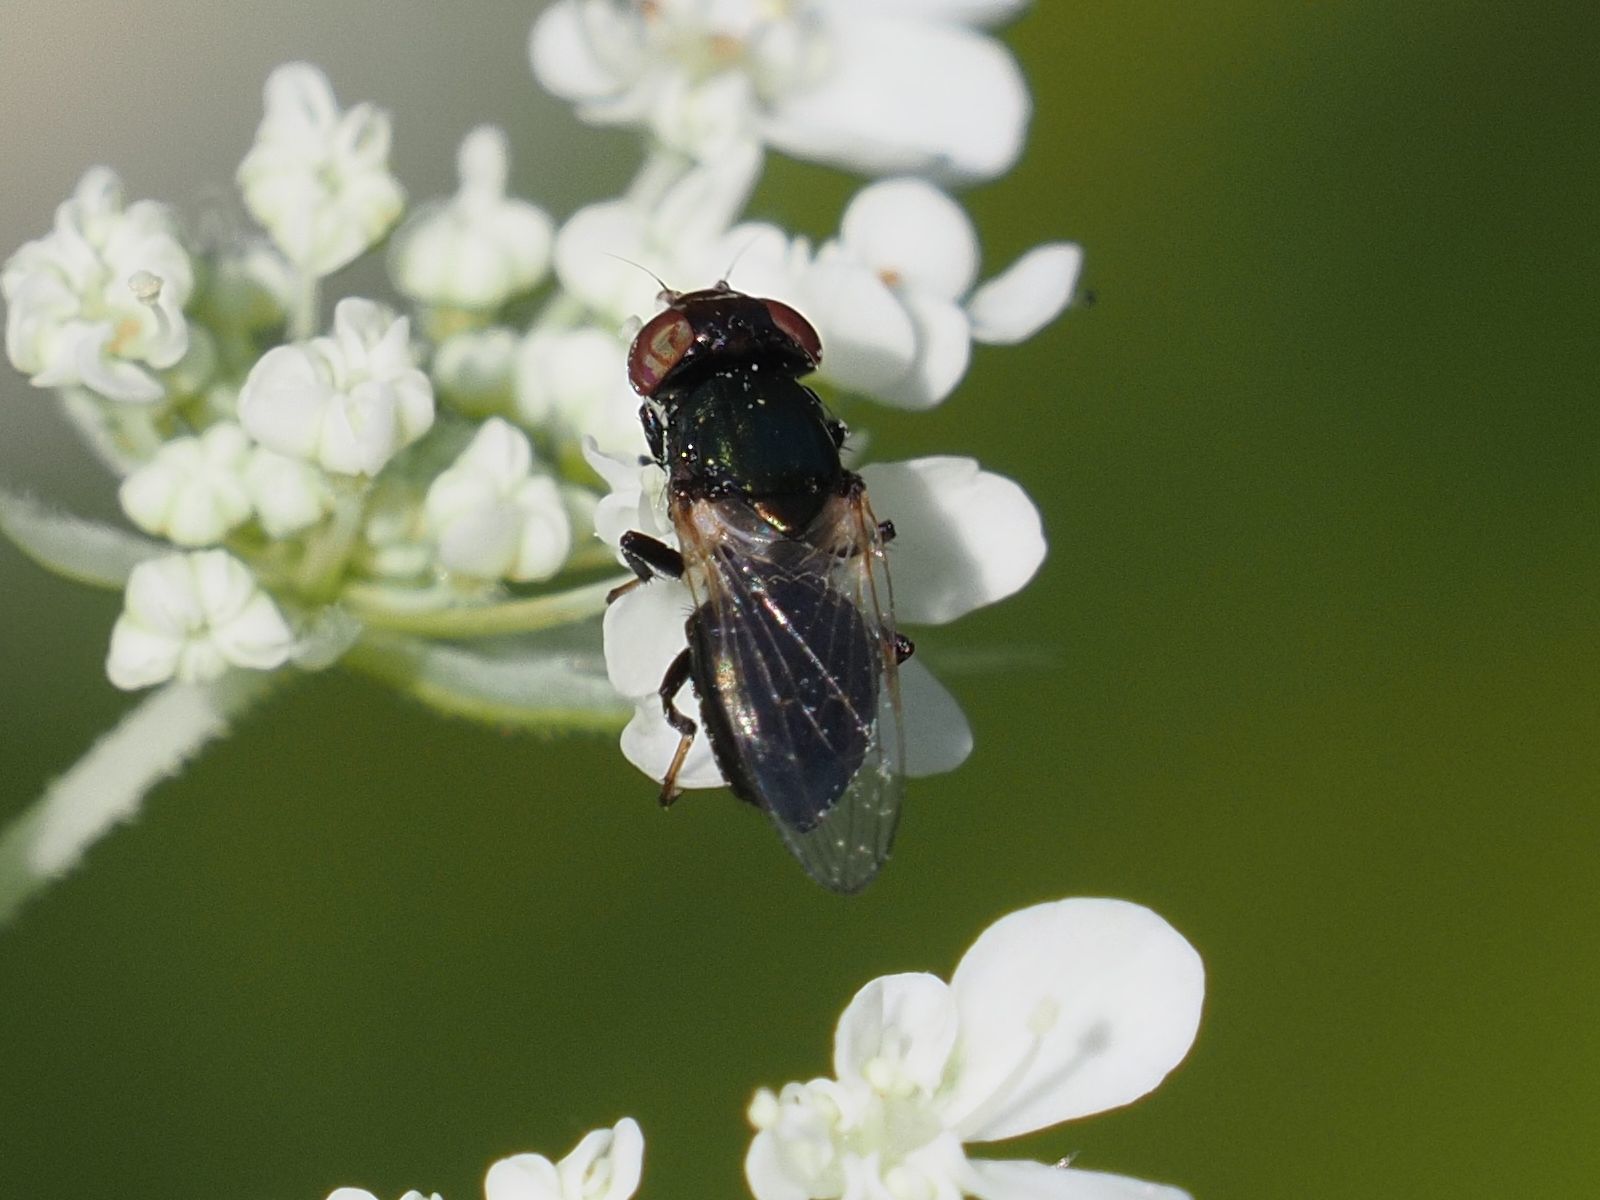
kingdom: Animalia
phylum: Arthropoda
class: Insecta
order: Diptera
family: Ulidiidae
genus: Physiphora
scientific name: Physiphora alceae
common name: Picture-winged fly
